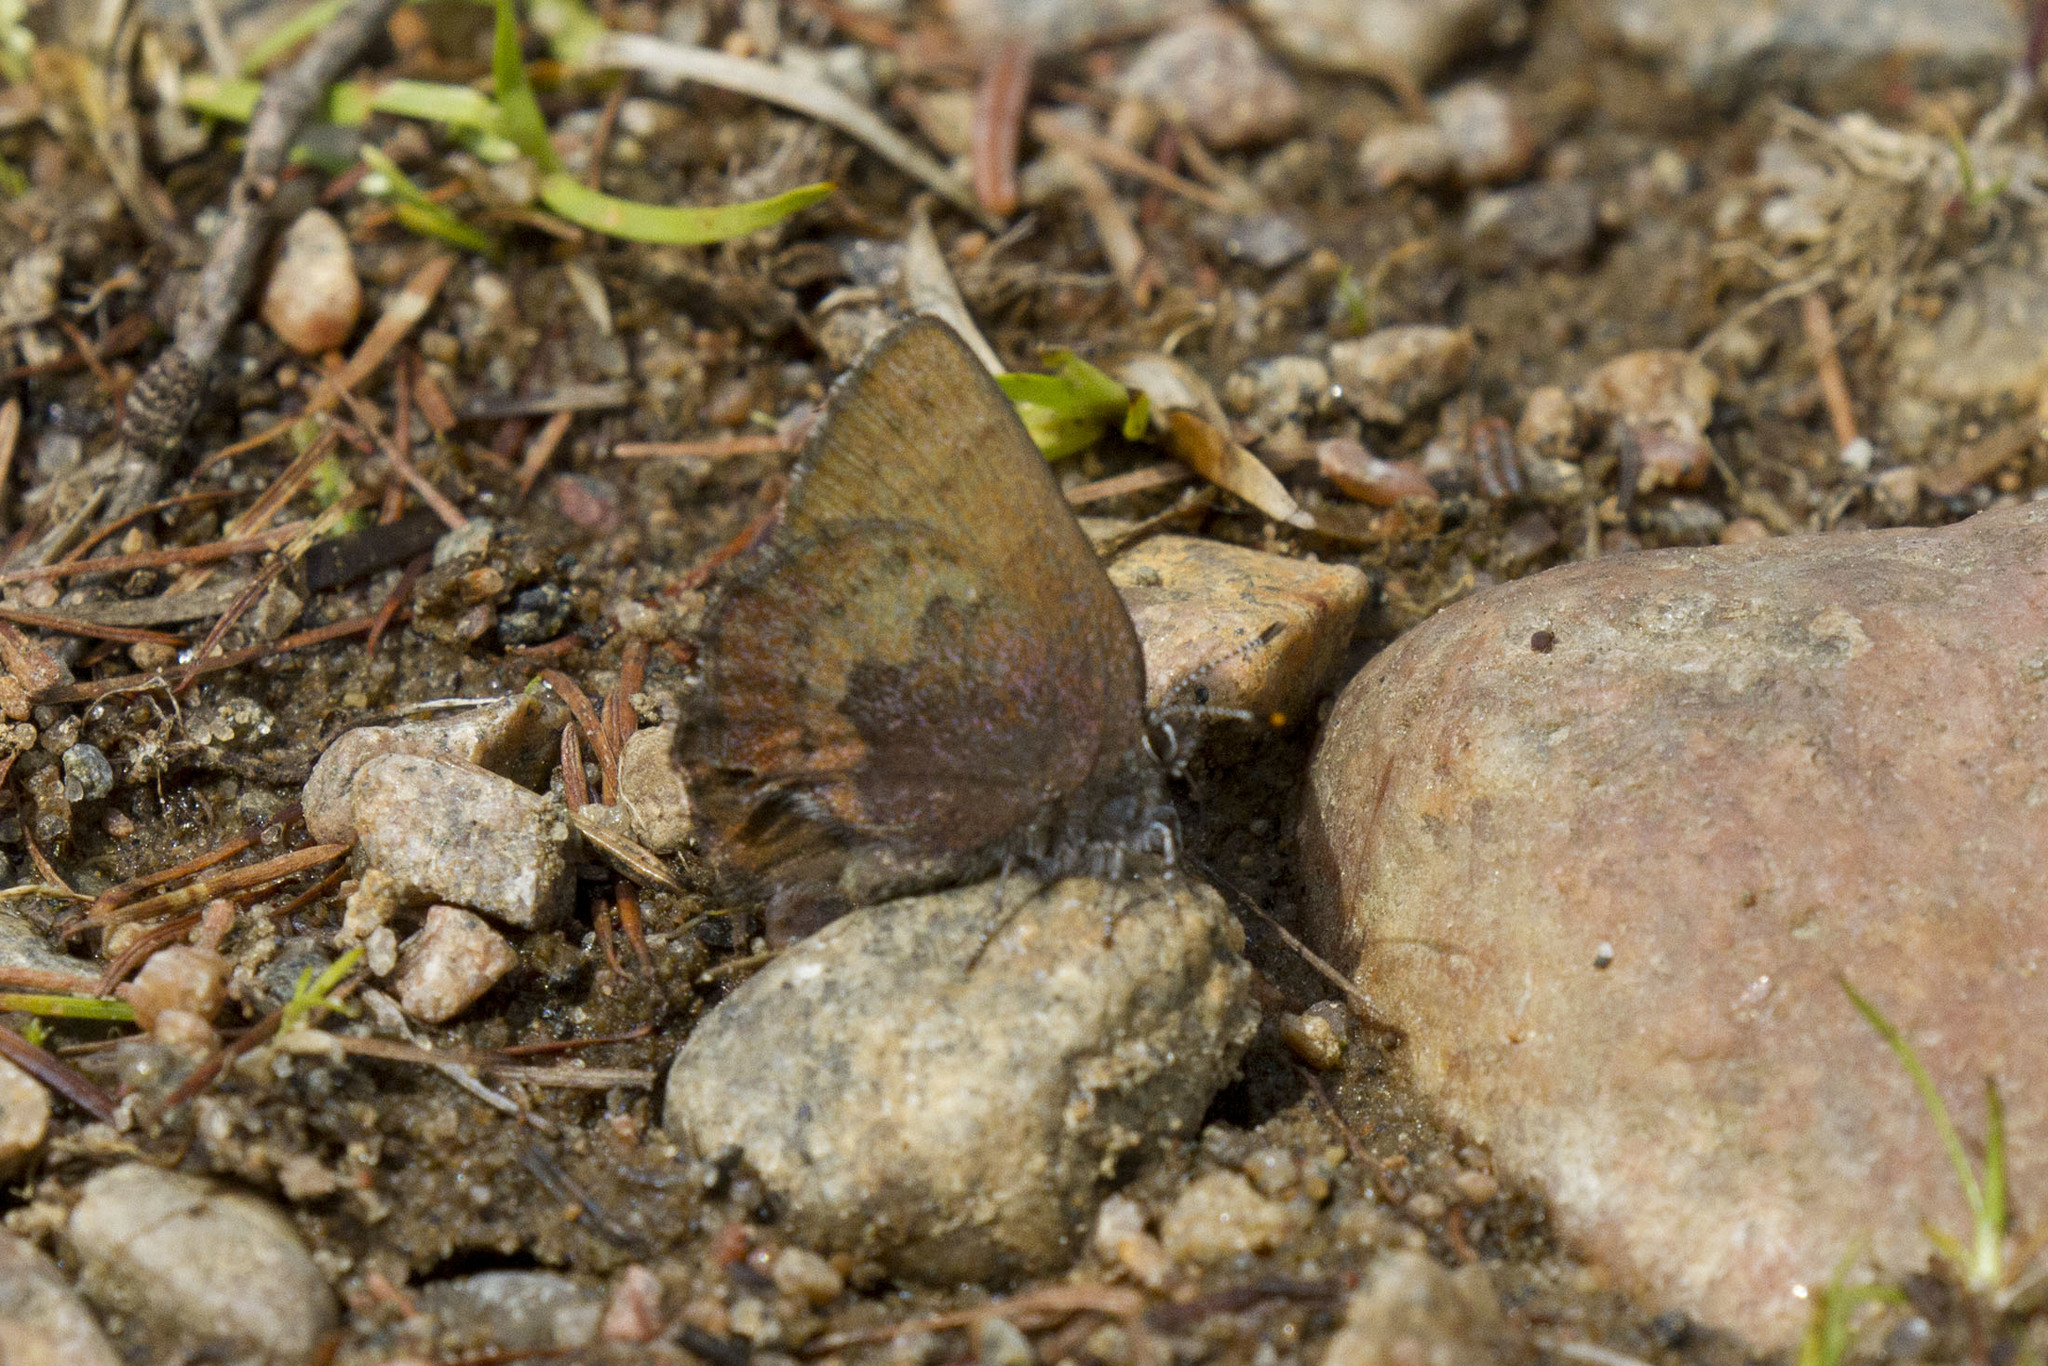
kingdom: Animalia
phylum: Arthropoda
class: Insecta
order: Lepidoptera
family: Lycaenidae
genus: Incisalia
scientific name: Incisalia irioides
